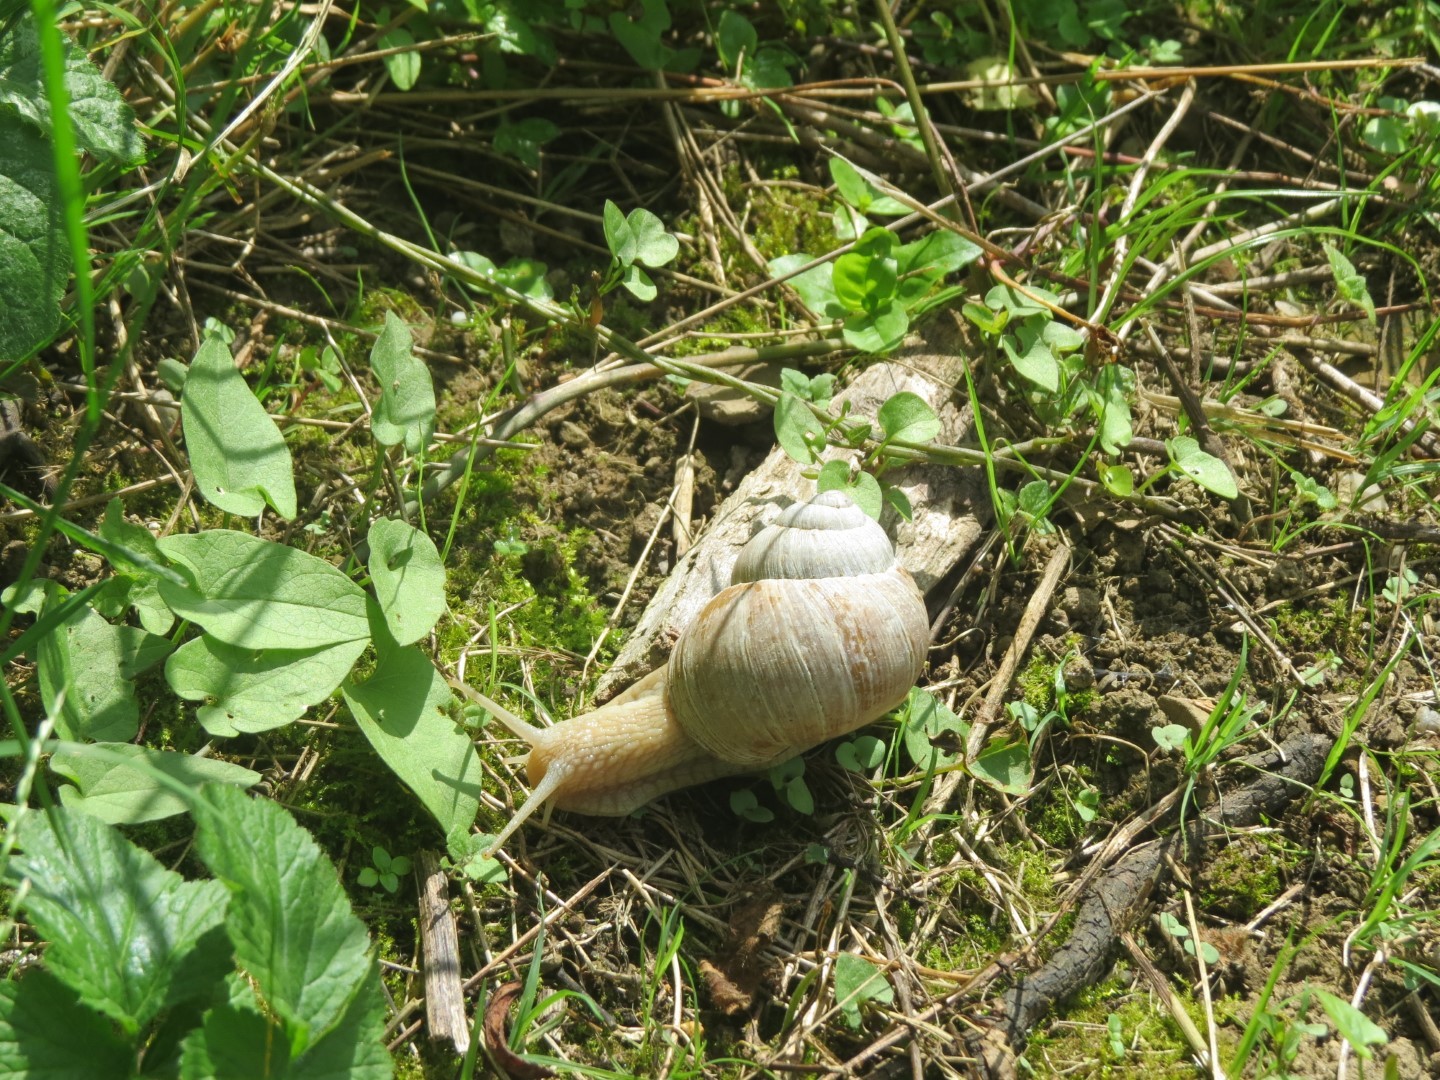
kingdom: Animalia
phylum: Mollusca
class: Gastropoda
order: Stylommatophora
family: Helicidae
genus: Helix
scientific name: Helix pomatia
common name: Roman snail
